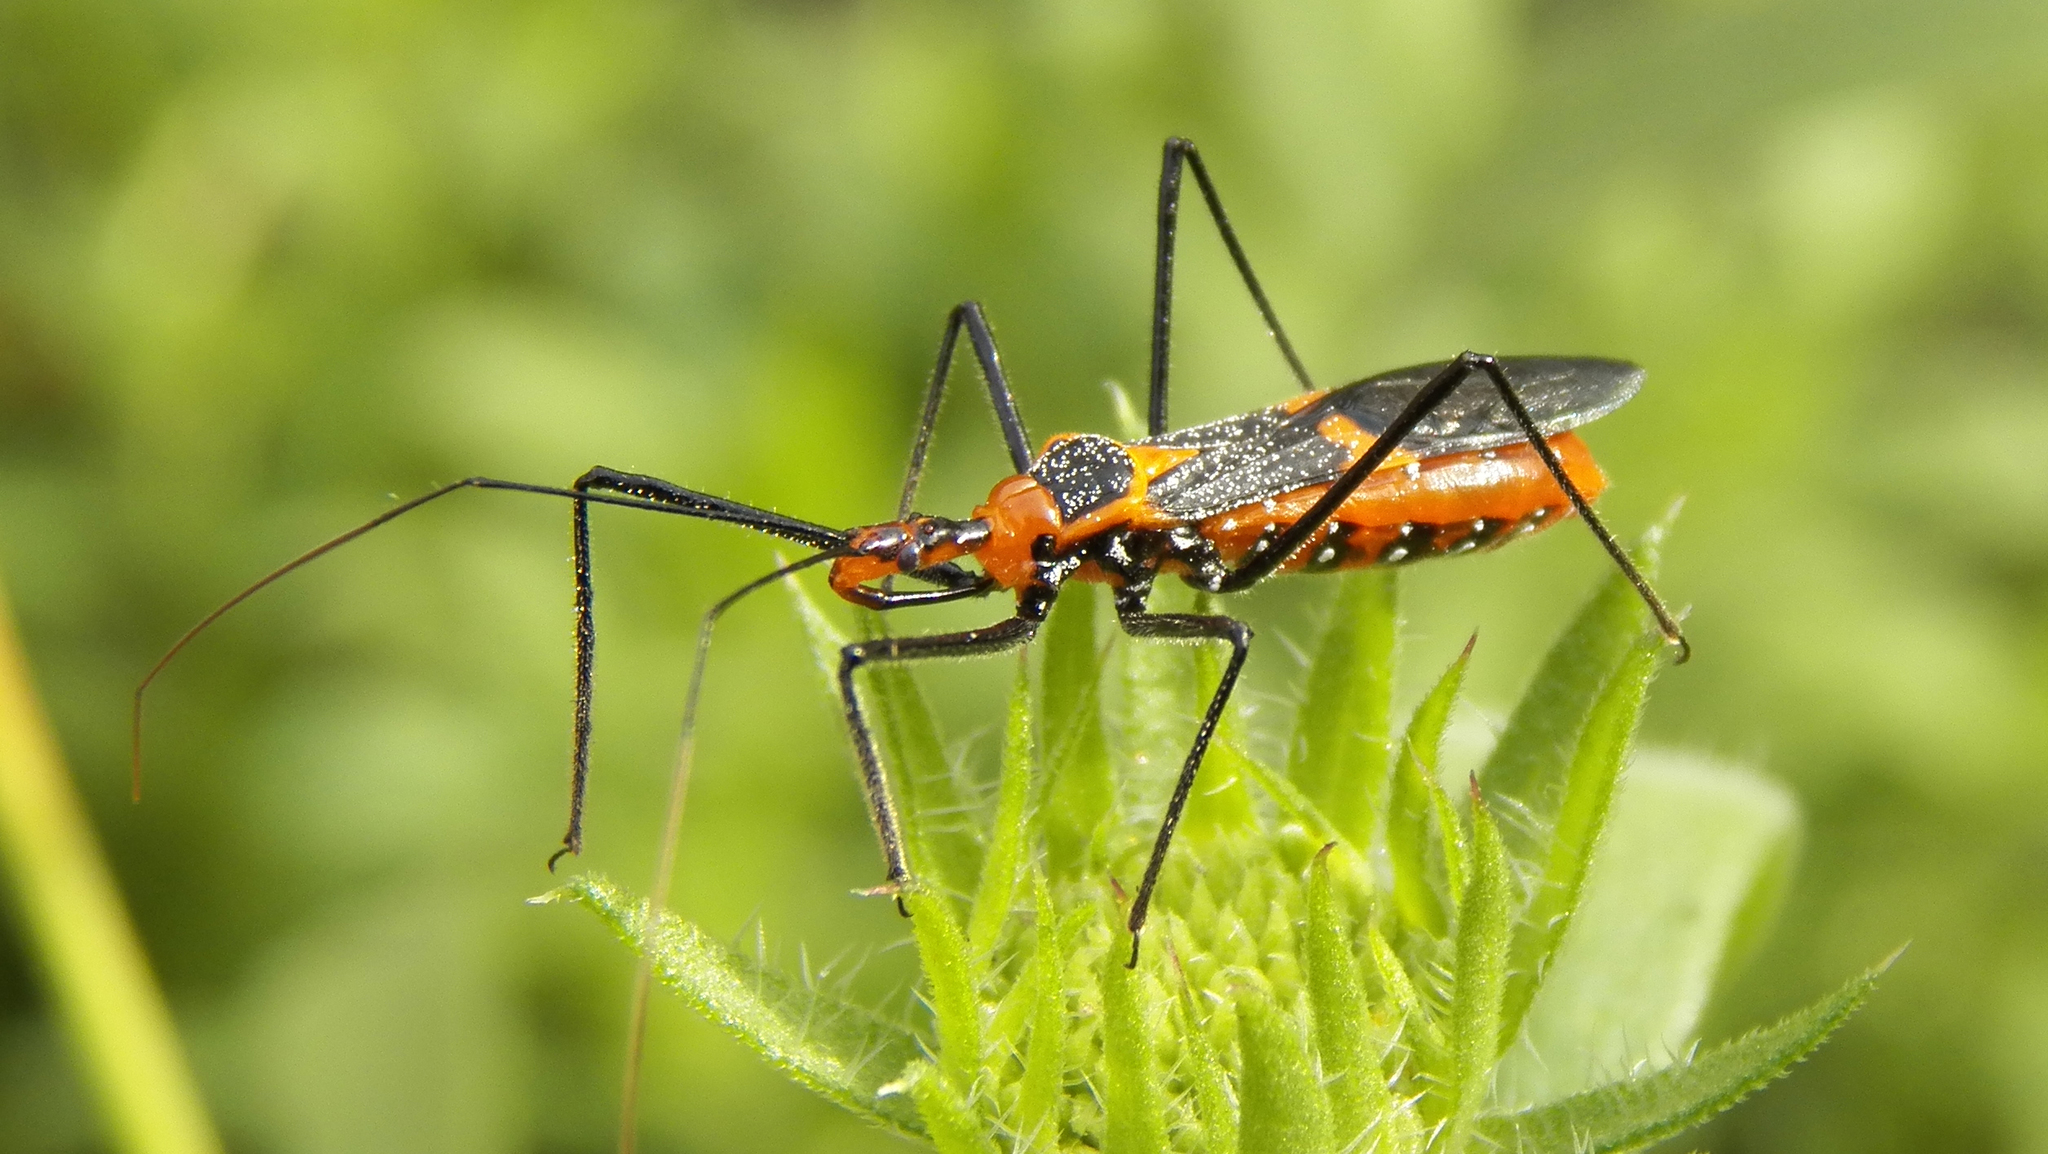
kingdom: Animalia
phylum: Arthropoda
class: Insecta
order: Hemiptera
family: Reduviidae
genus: Zelus
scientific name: Zelus longipes
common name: Milkweed assassin bug
